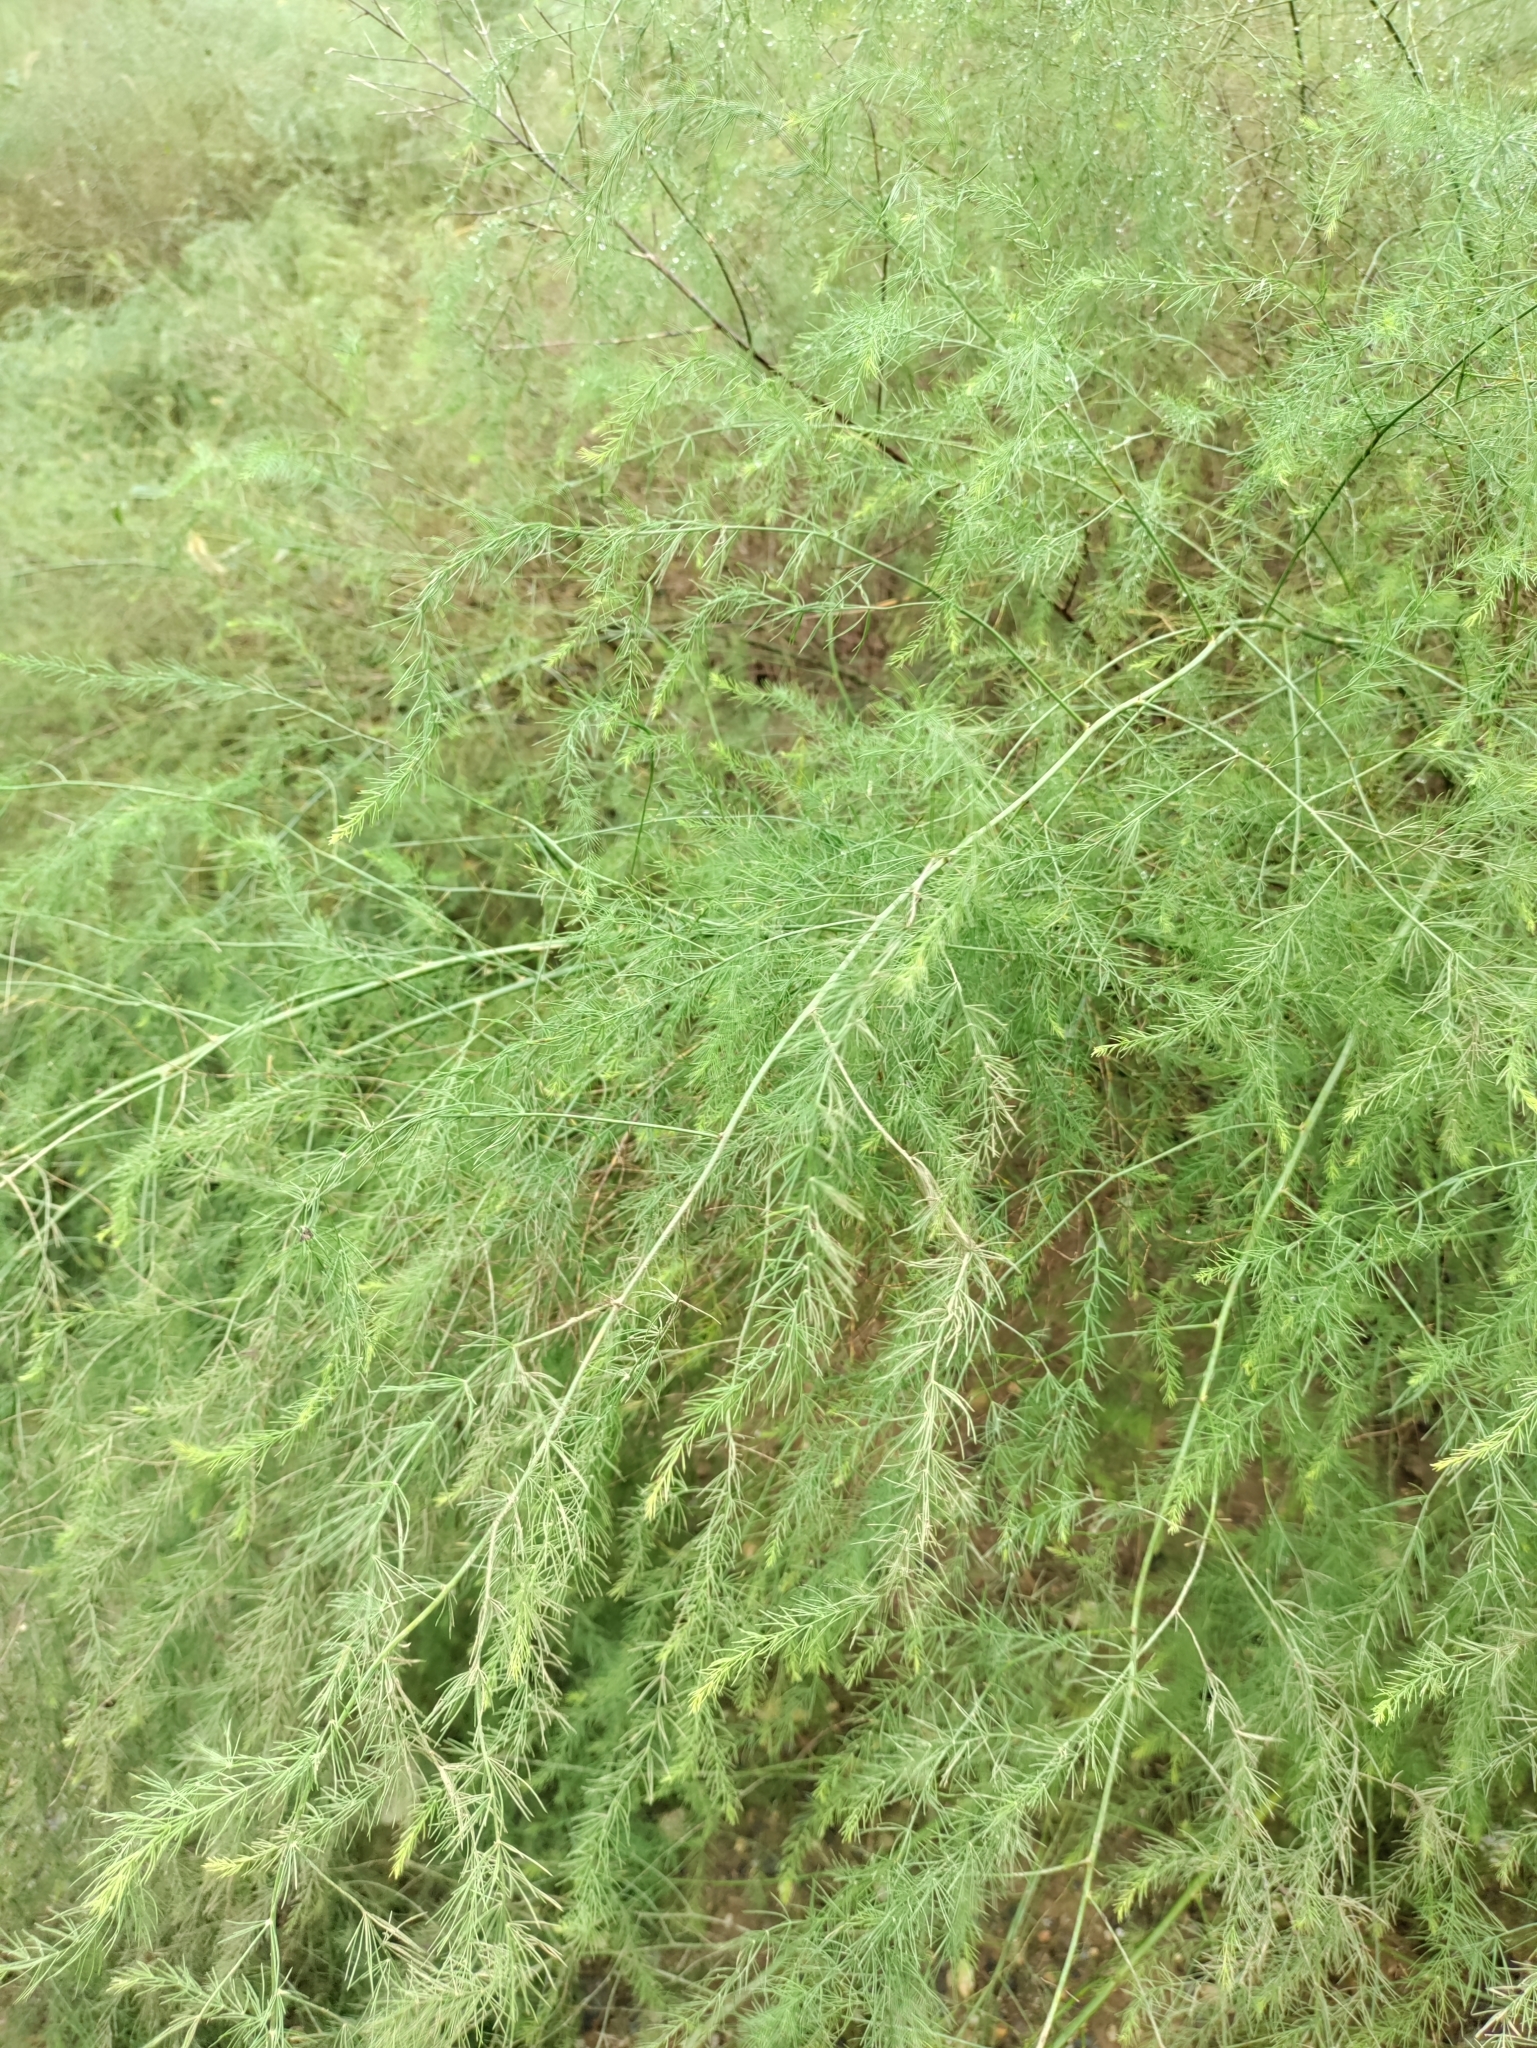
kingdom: Plantae
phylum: Tracheophyta
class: Liliopsida
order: Asparagales
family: Asparagaceae
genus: Asparagus
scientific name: Asparagus officinalis
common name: Garden asparagus
